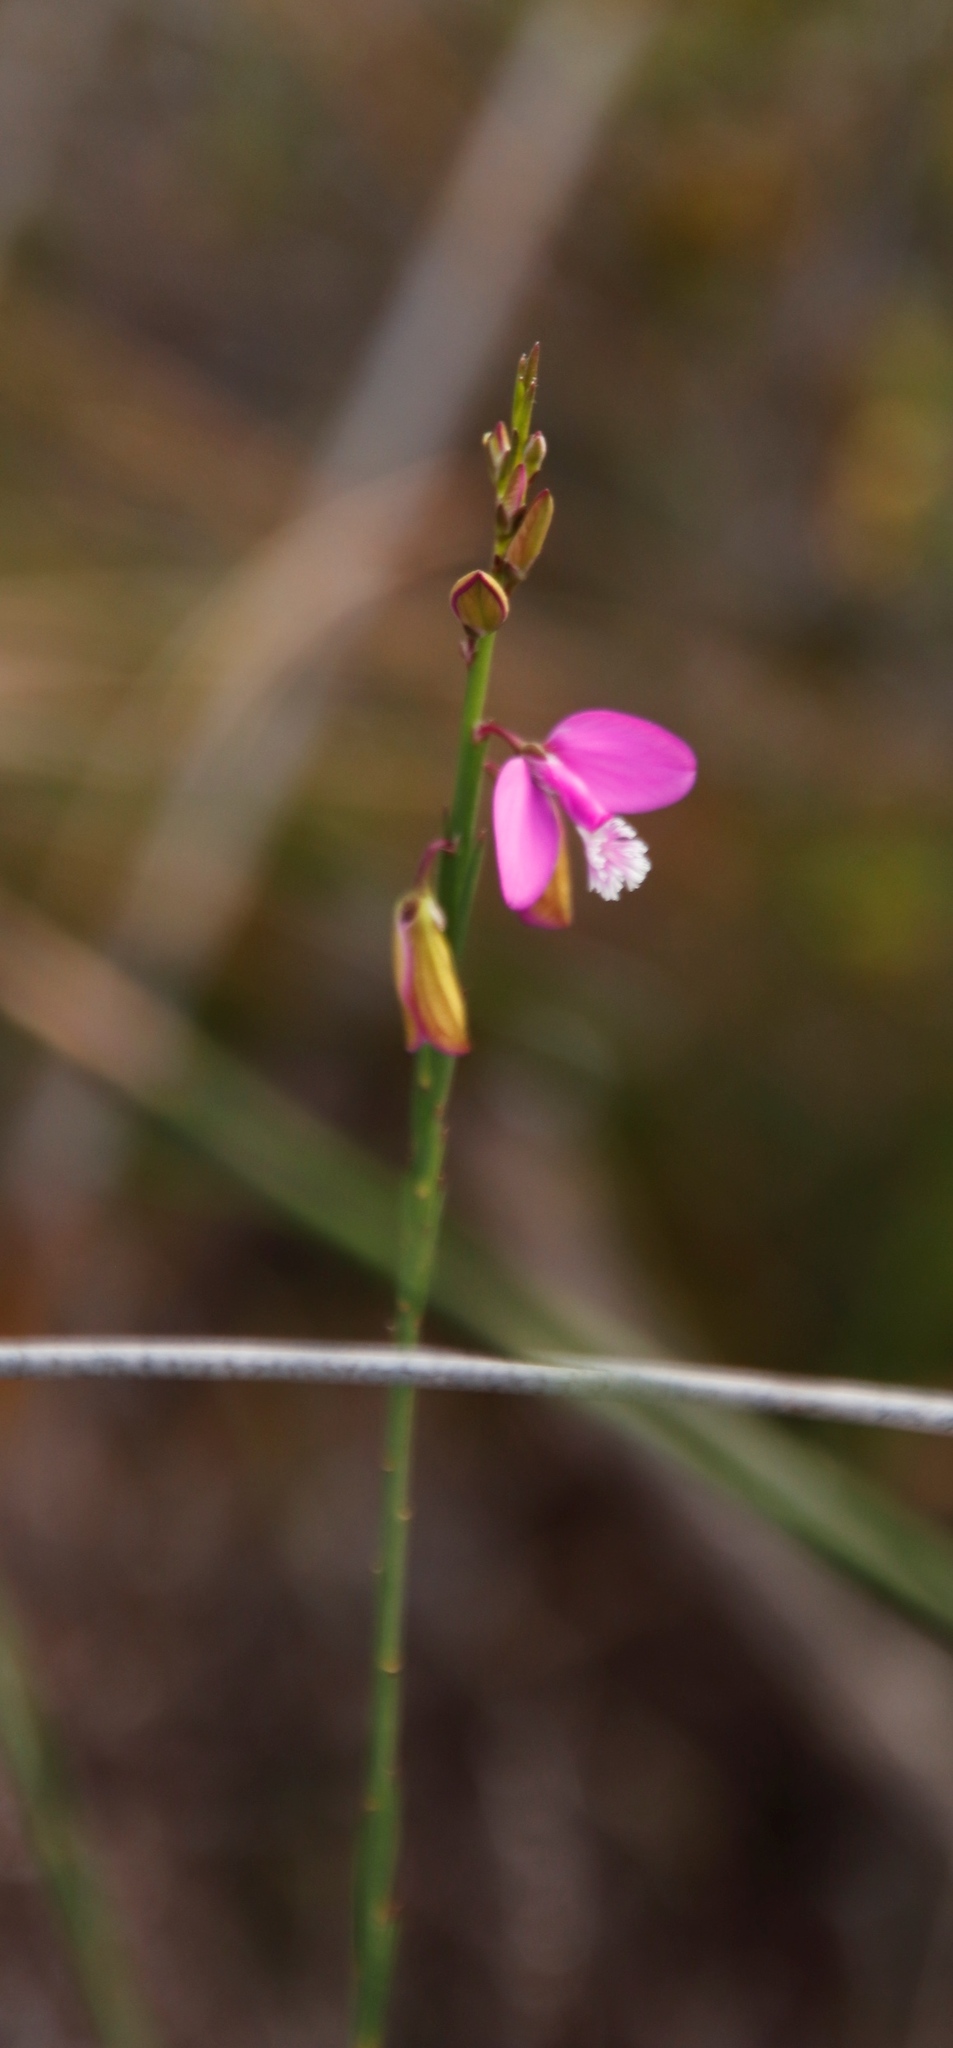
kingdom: Plantae
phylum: Tracheophyta
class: Magnoliopsida
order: Fabales
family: Polygalaceae
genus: Polygala
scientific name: Polygala garcini
